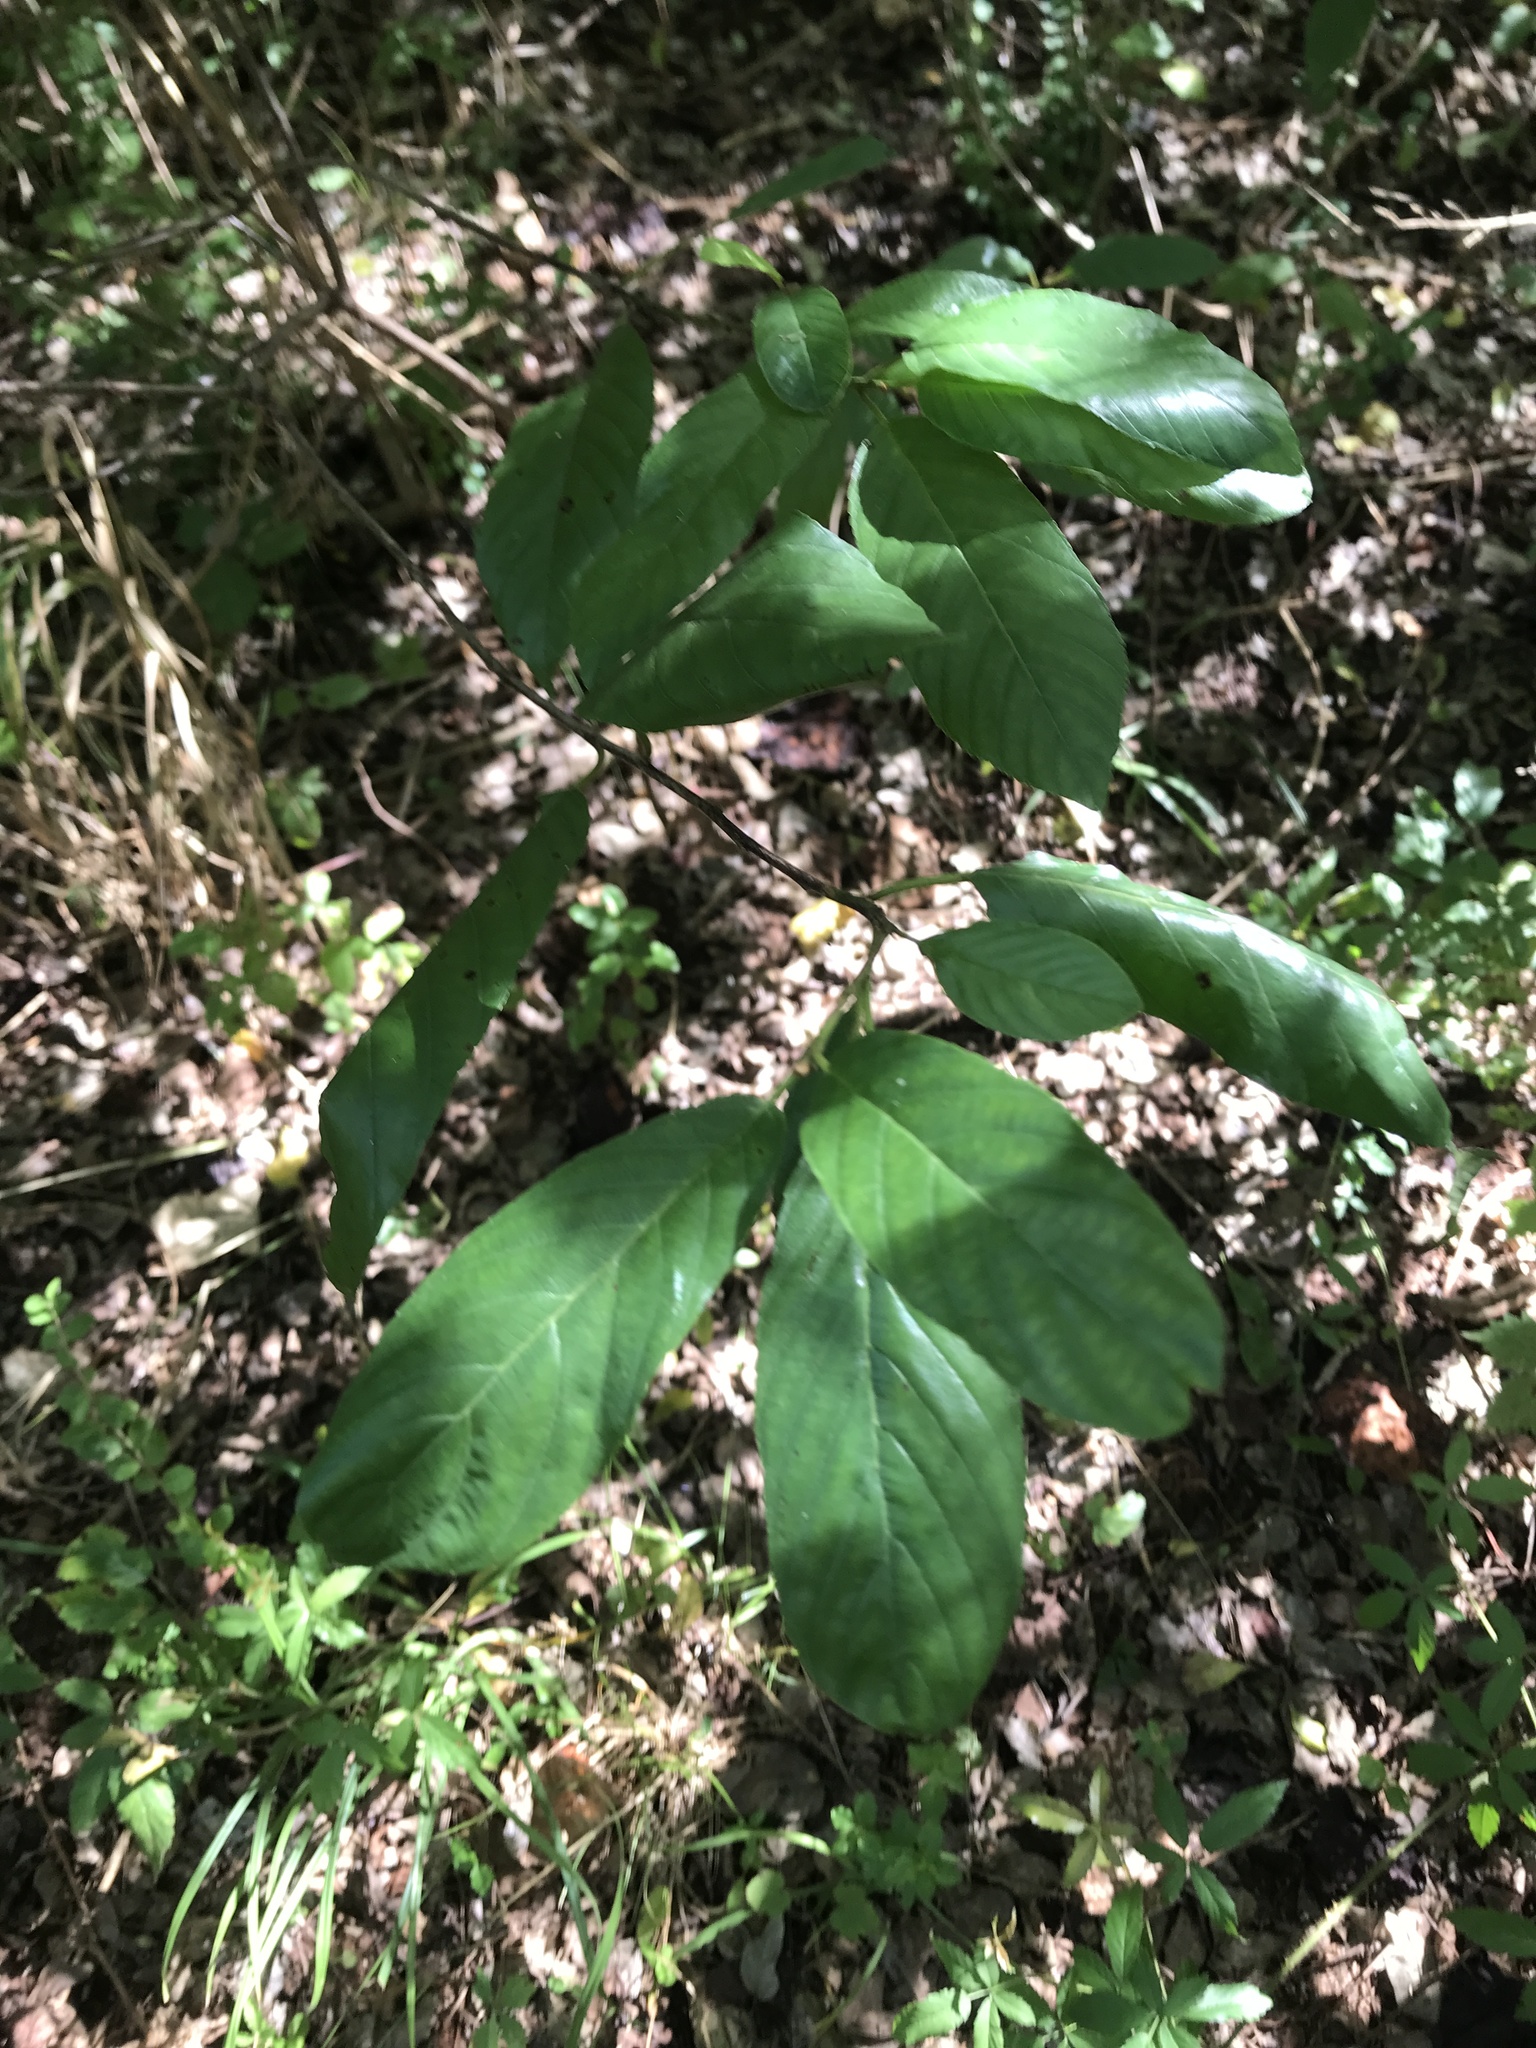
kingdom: Plantae
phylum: Tracheophyta
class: Magnoliopsida
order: Rosales
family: Rhamnaceae
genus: Frangula
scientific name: Frangula caroliniana
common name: Carolina buckthorn
